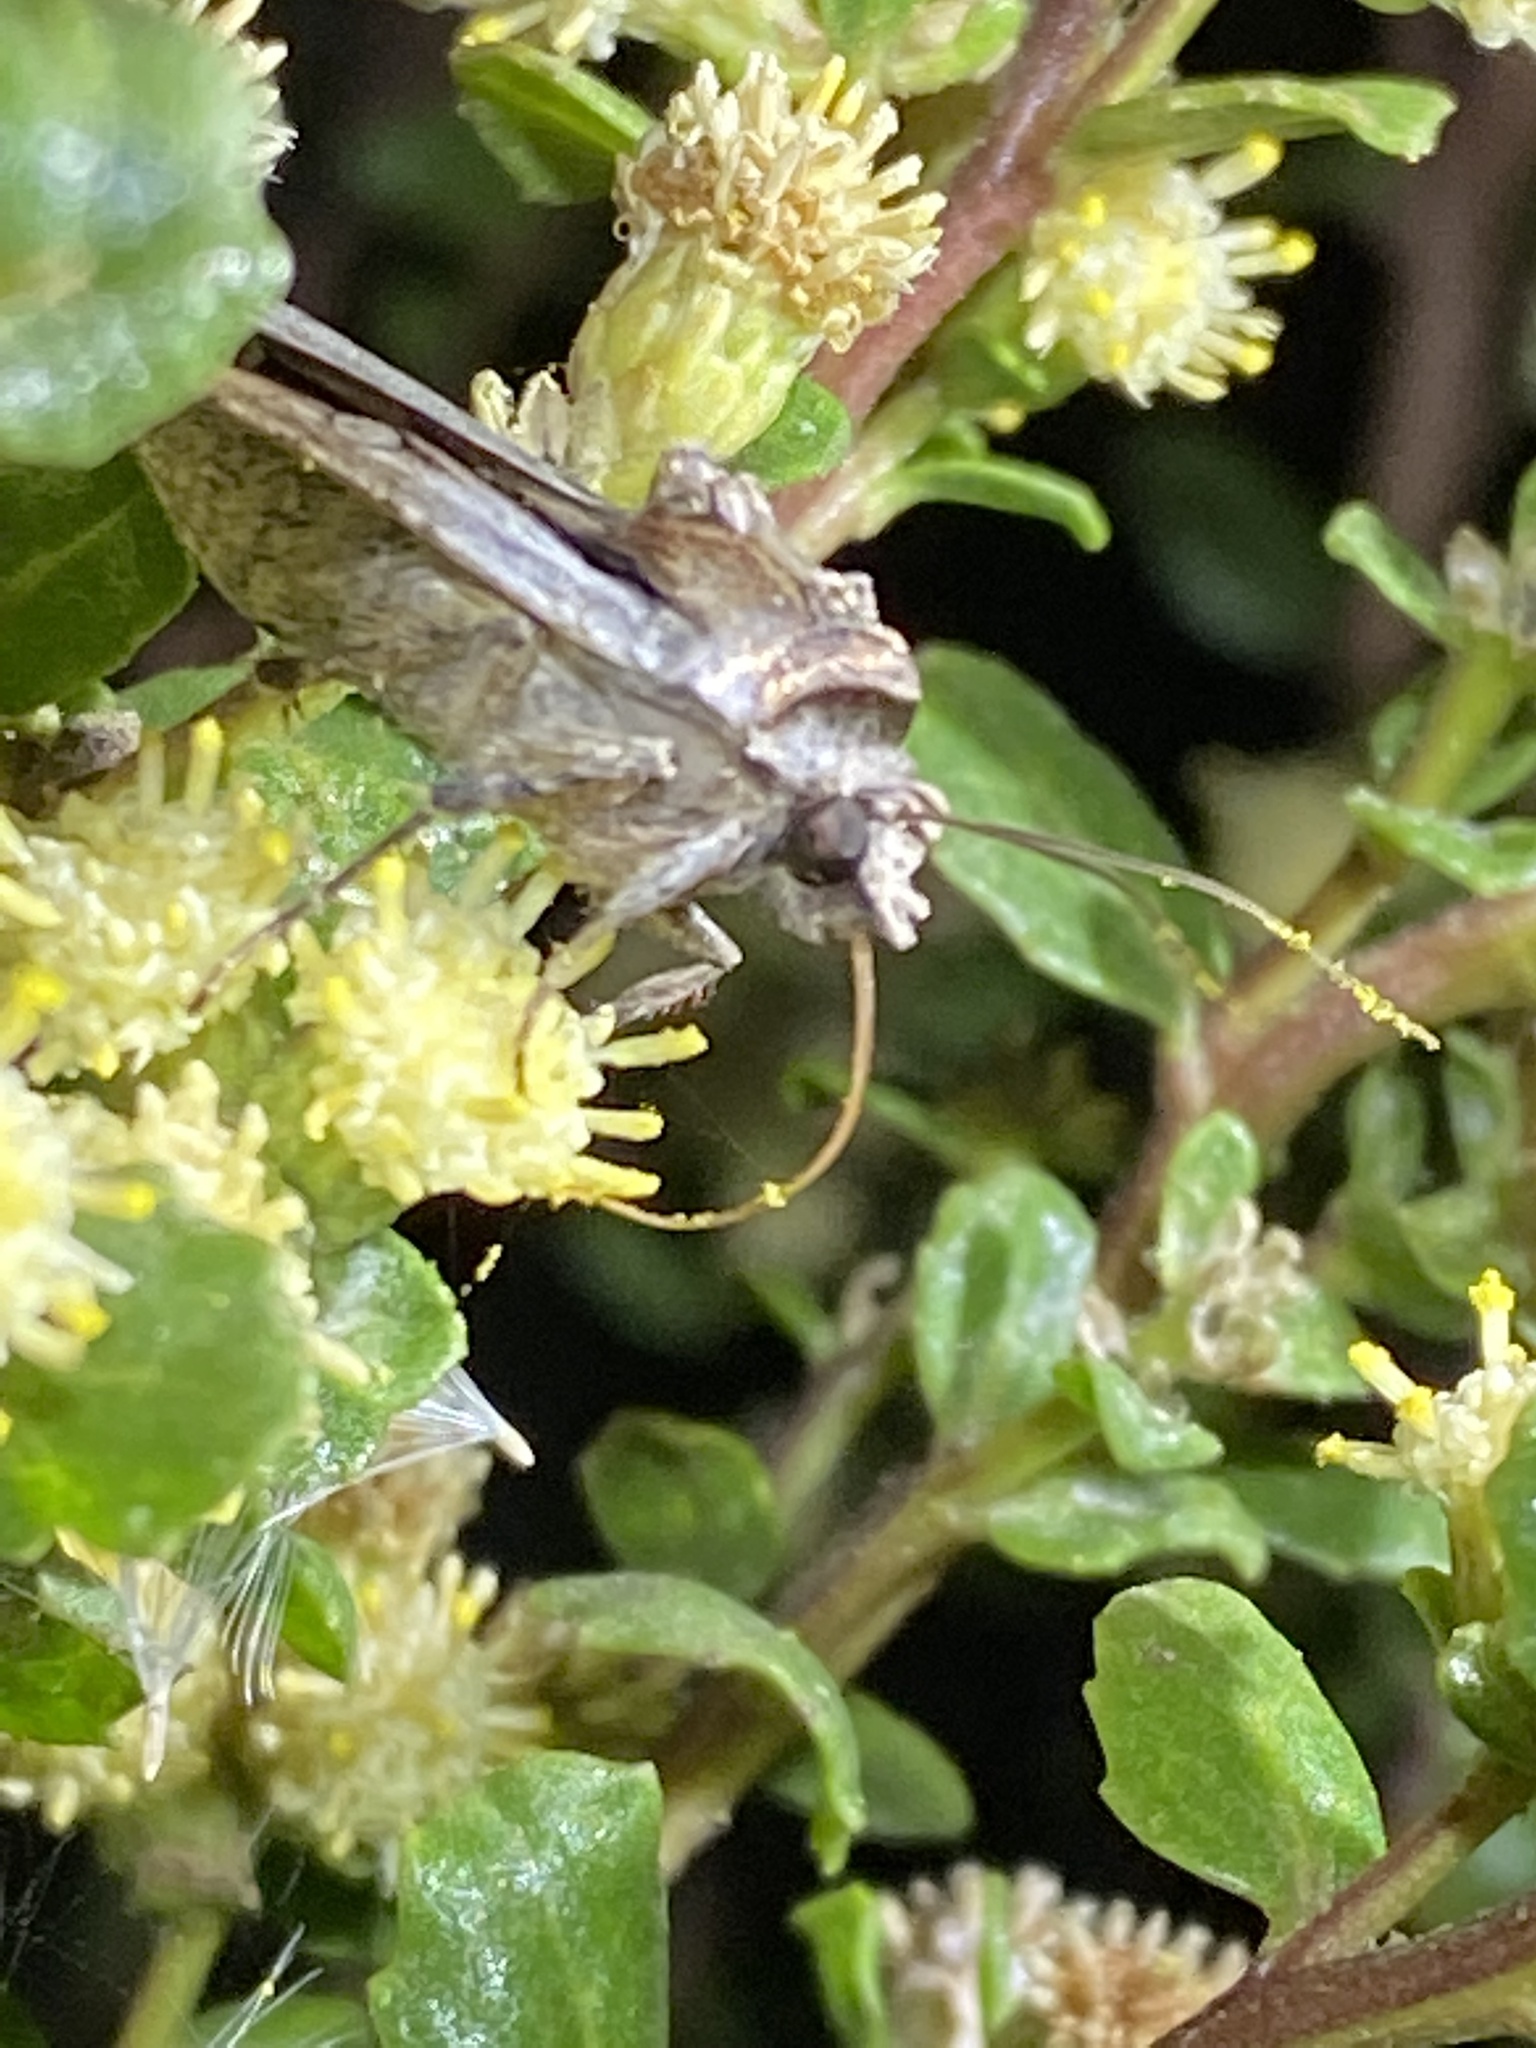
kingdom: Animalia
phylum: Arthropoda
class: Insecta
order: Lepidoptera
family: Noctuidae
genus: Hemieuxoa
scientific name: Hemieuxoa rudens
